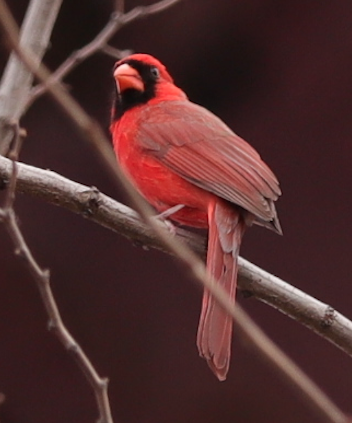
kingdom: Animalia
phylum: Chordata
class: Aves
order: Passeriformes
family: Cardinalidae
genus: Cardinalis
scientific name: Cardinalis cardinalis
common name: Northern cardinal
